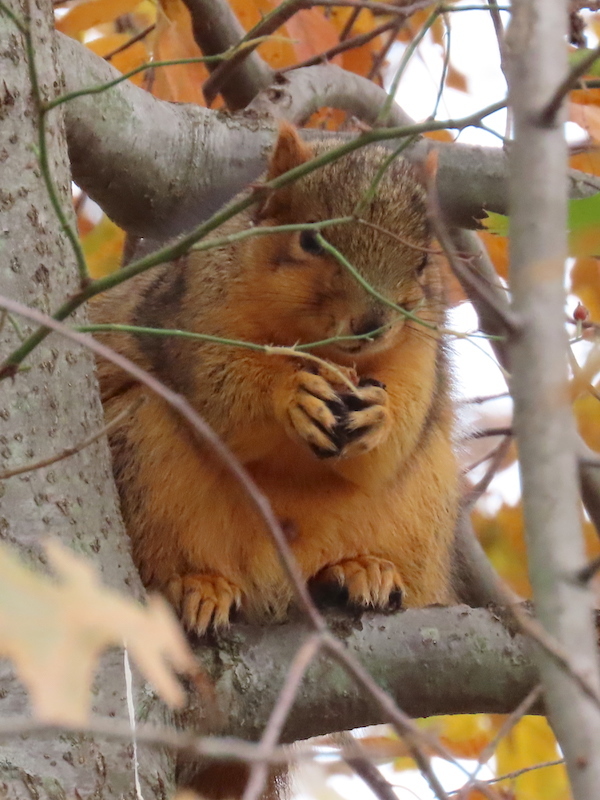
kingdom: Animalia
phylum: Chordata
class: Mammalia
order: Rodentia
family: Sciuridae
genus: Sciurus
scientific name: Sciurus niger
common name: Fox squirrel
